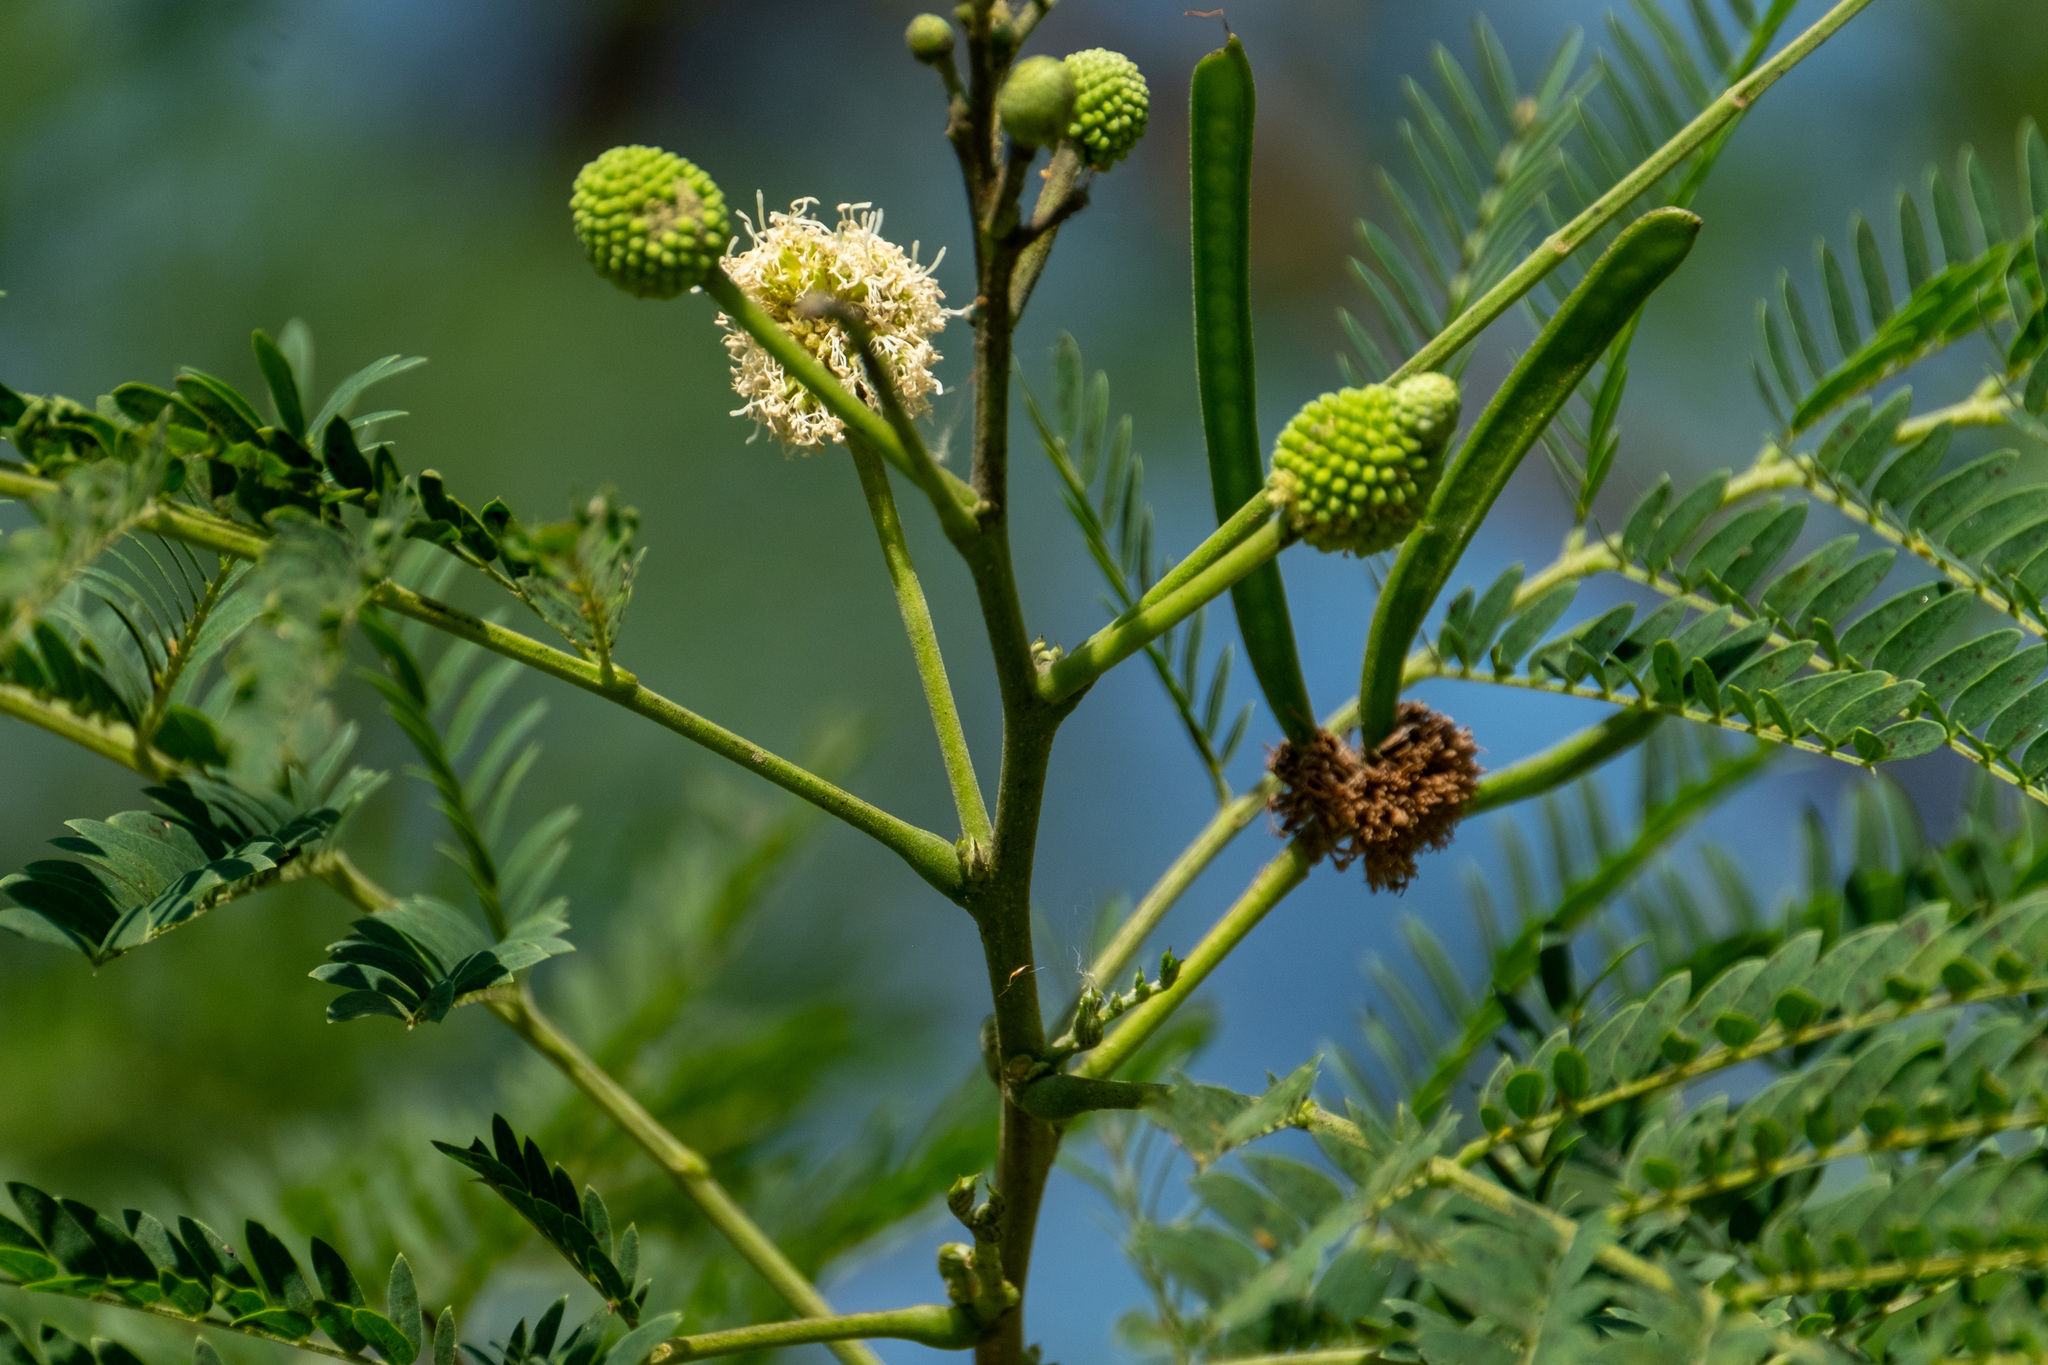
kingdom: Plantae
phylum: Tracheophyta
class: Magnoliopsida
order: Fabales
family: Fabaceae
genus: Leucaena
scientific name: Leucaena leucocephala
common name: White leadtree
